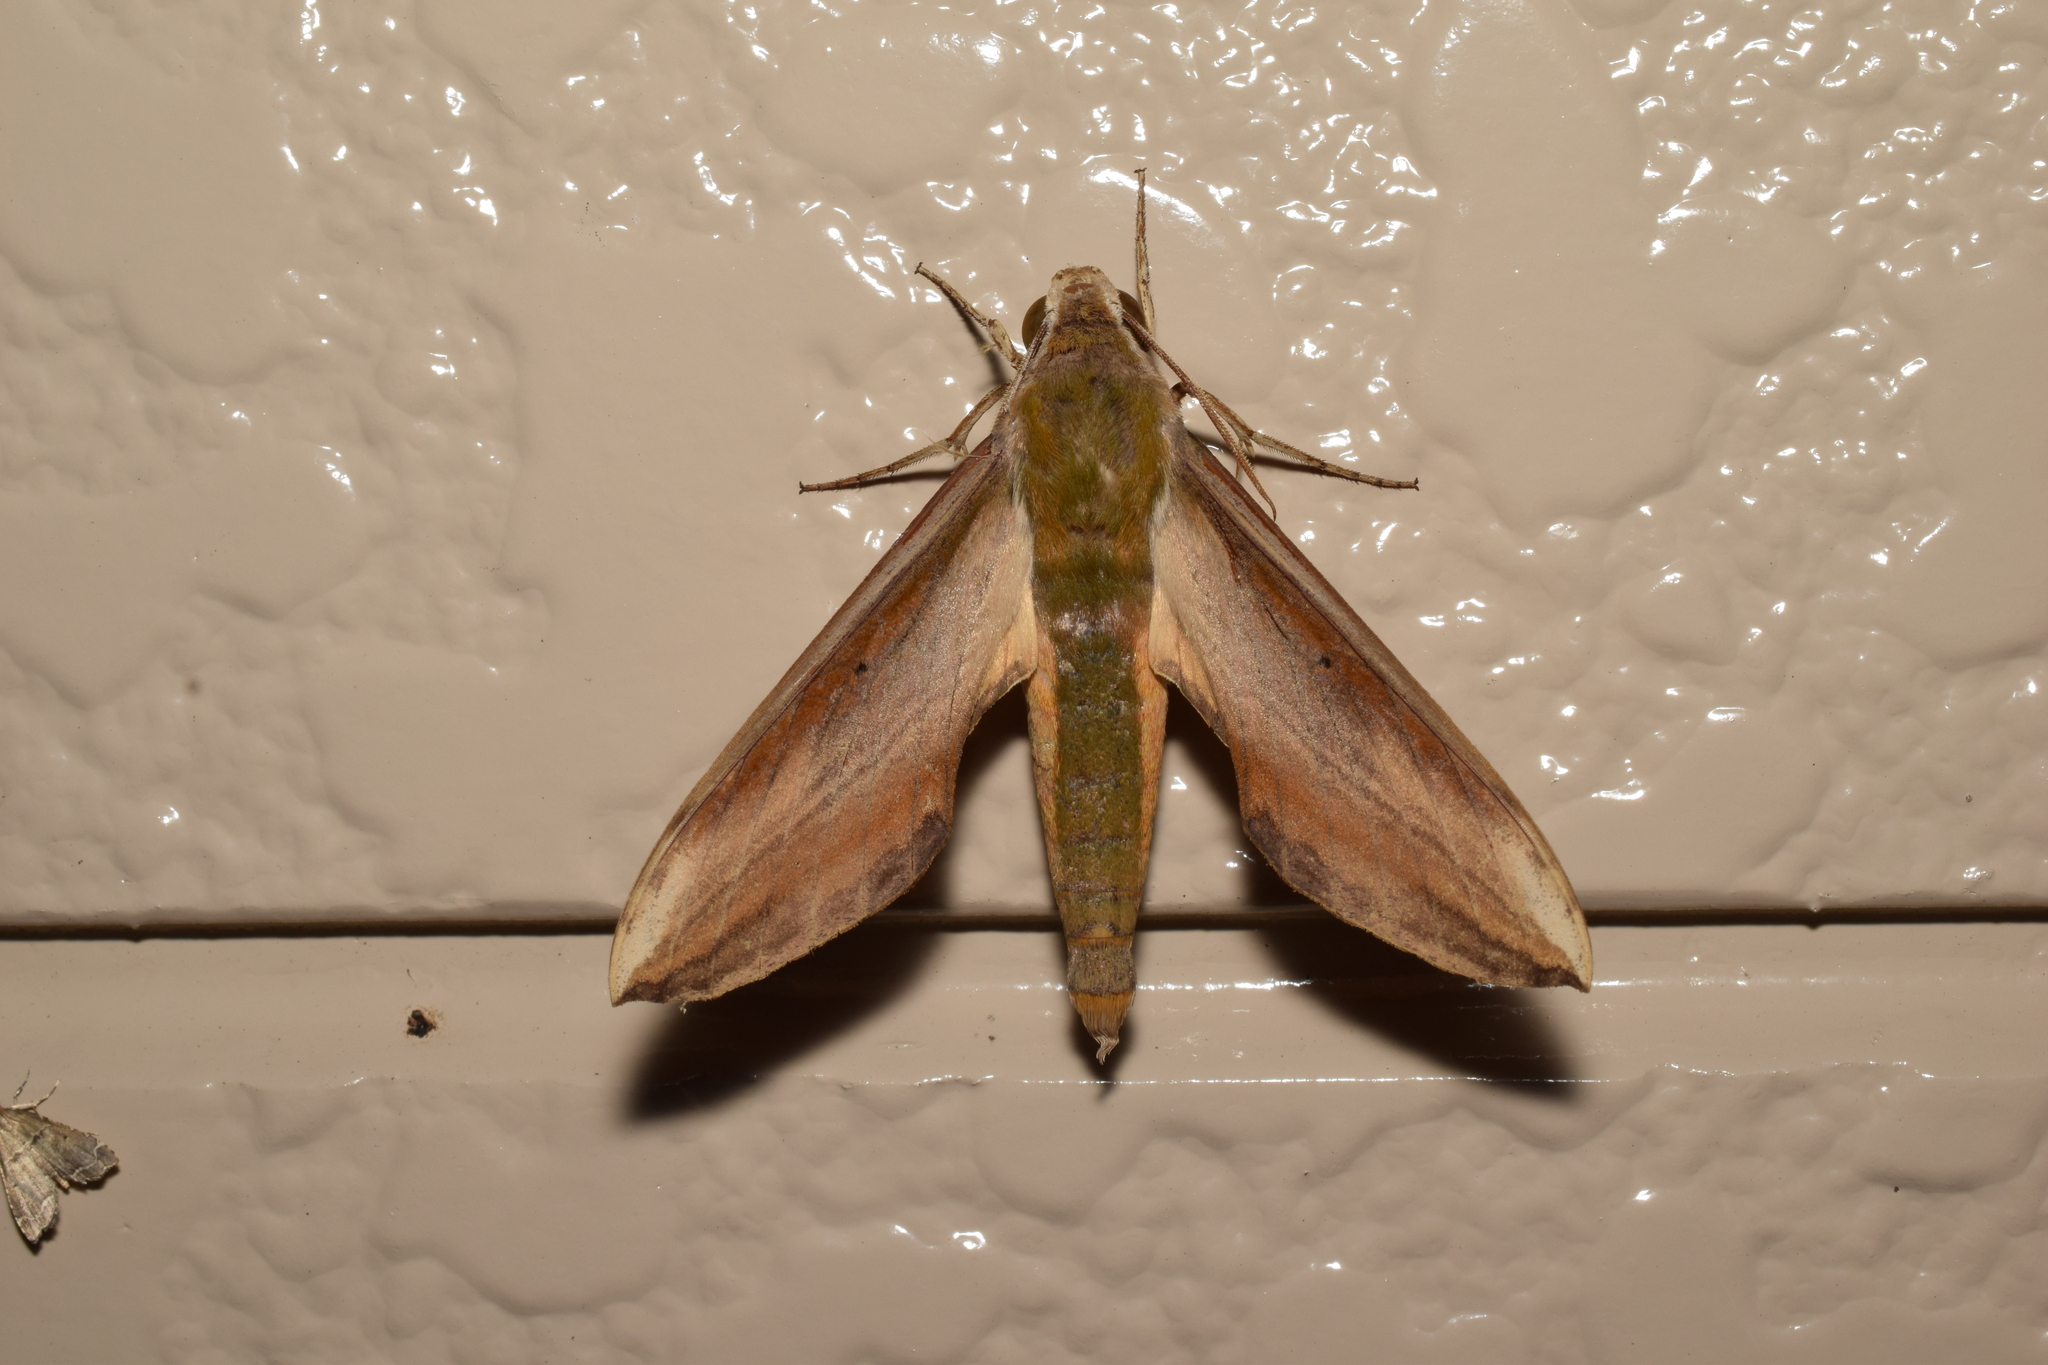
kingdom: Animalia
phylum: Arthropoda
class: Insecta
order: Lepidoptera
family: Sphingidae
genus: Theretra
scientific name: Theretra nessus
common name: Yam hawk moth
